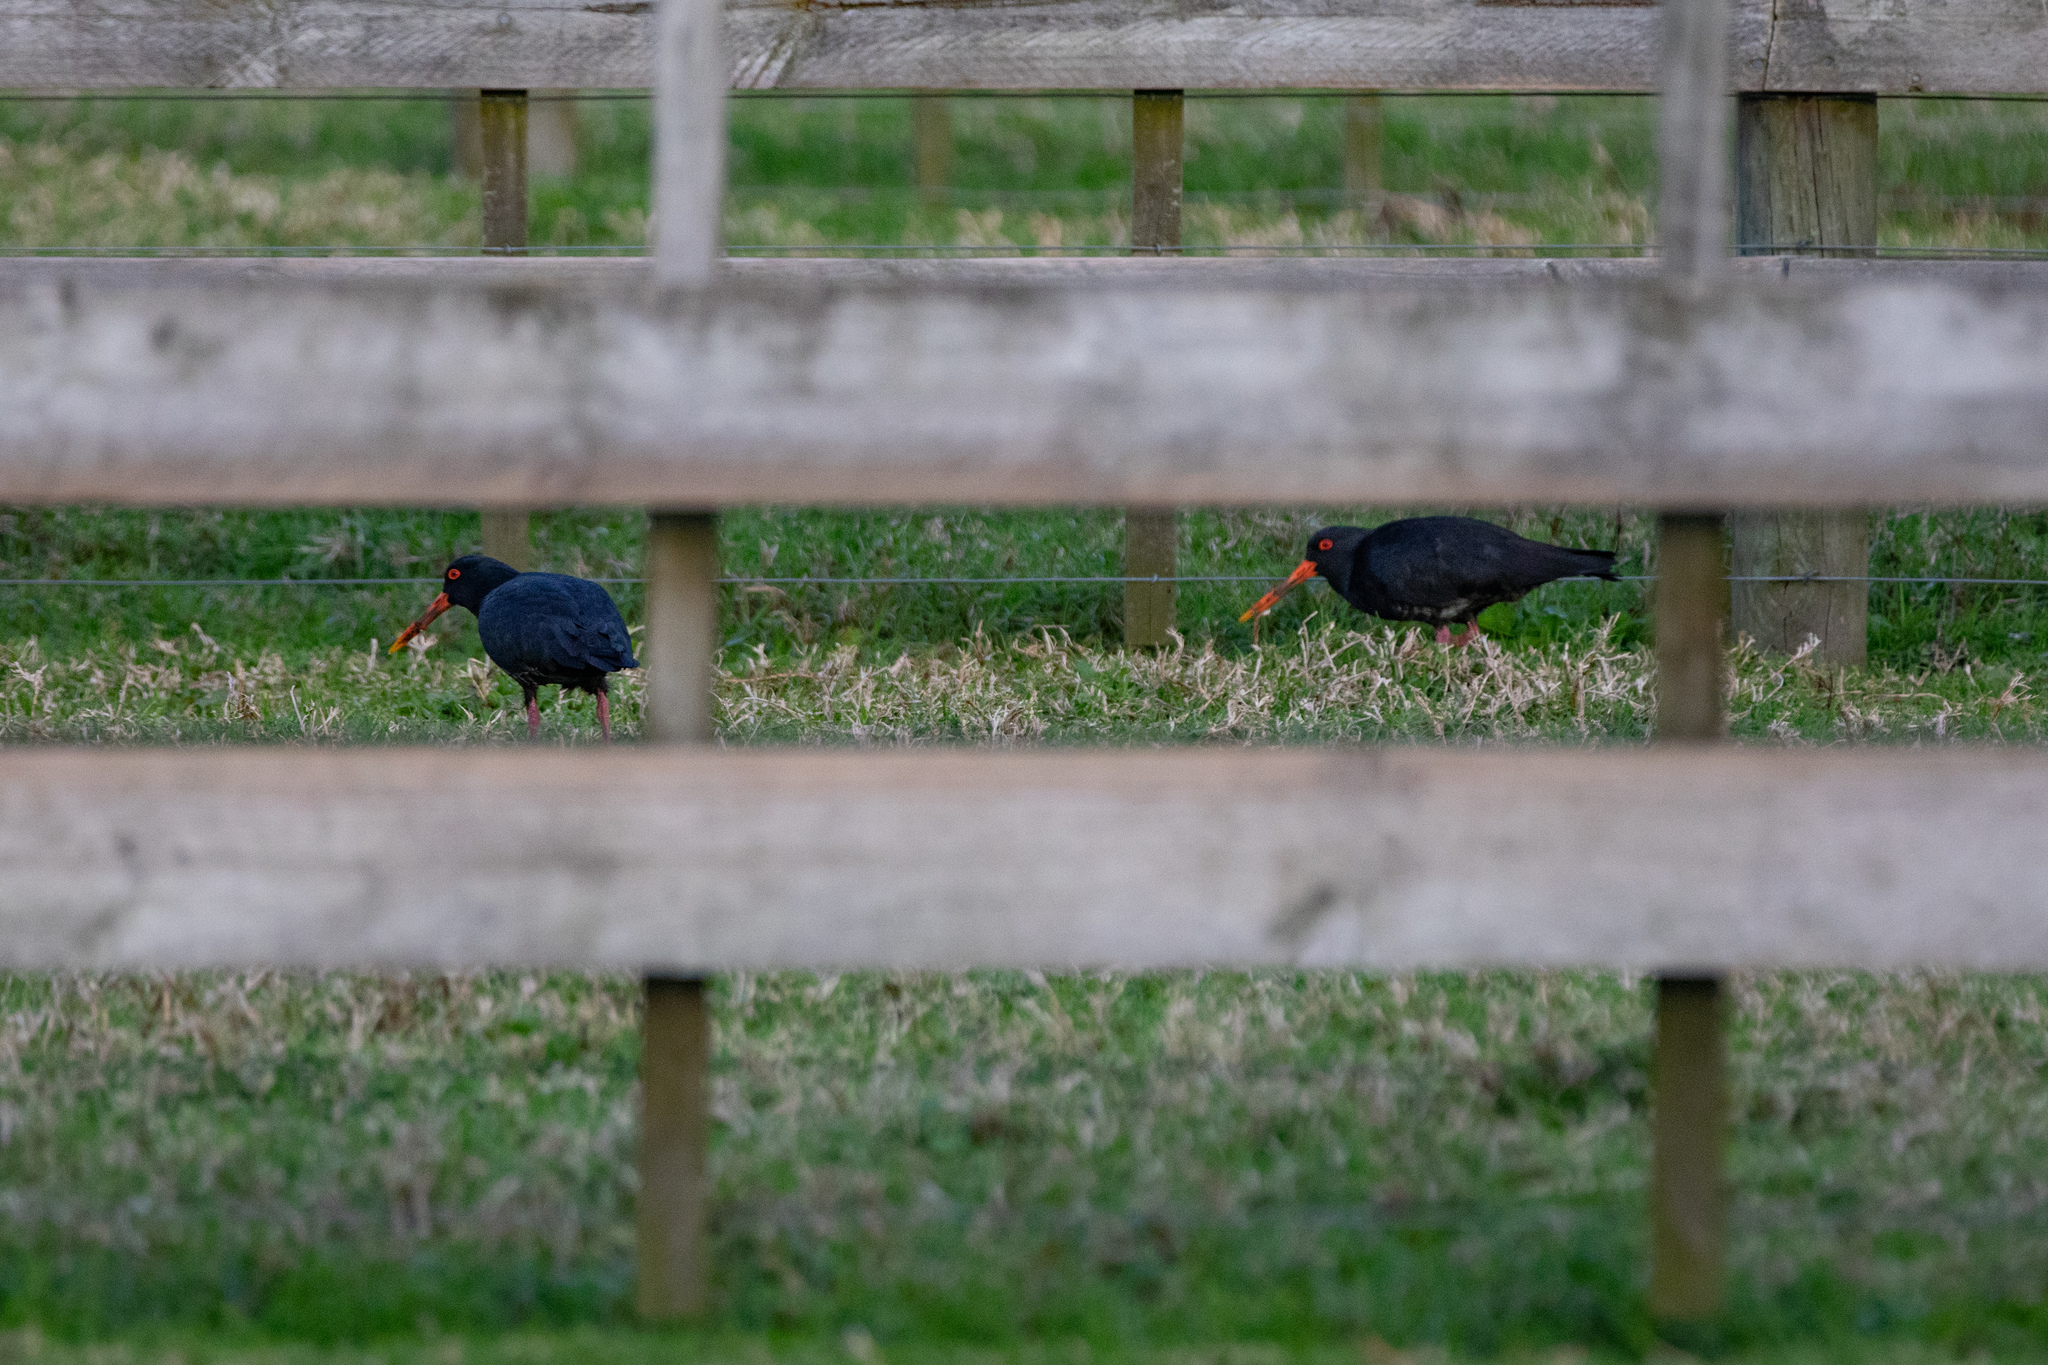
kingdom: Animalia
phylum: Chordata
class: Aves
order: Charadriiformes
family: Haematopodidae
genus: Haematopus
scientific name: Haematopus unicolor
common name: Variable oystercatcher
